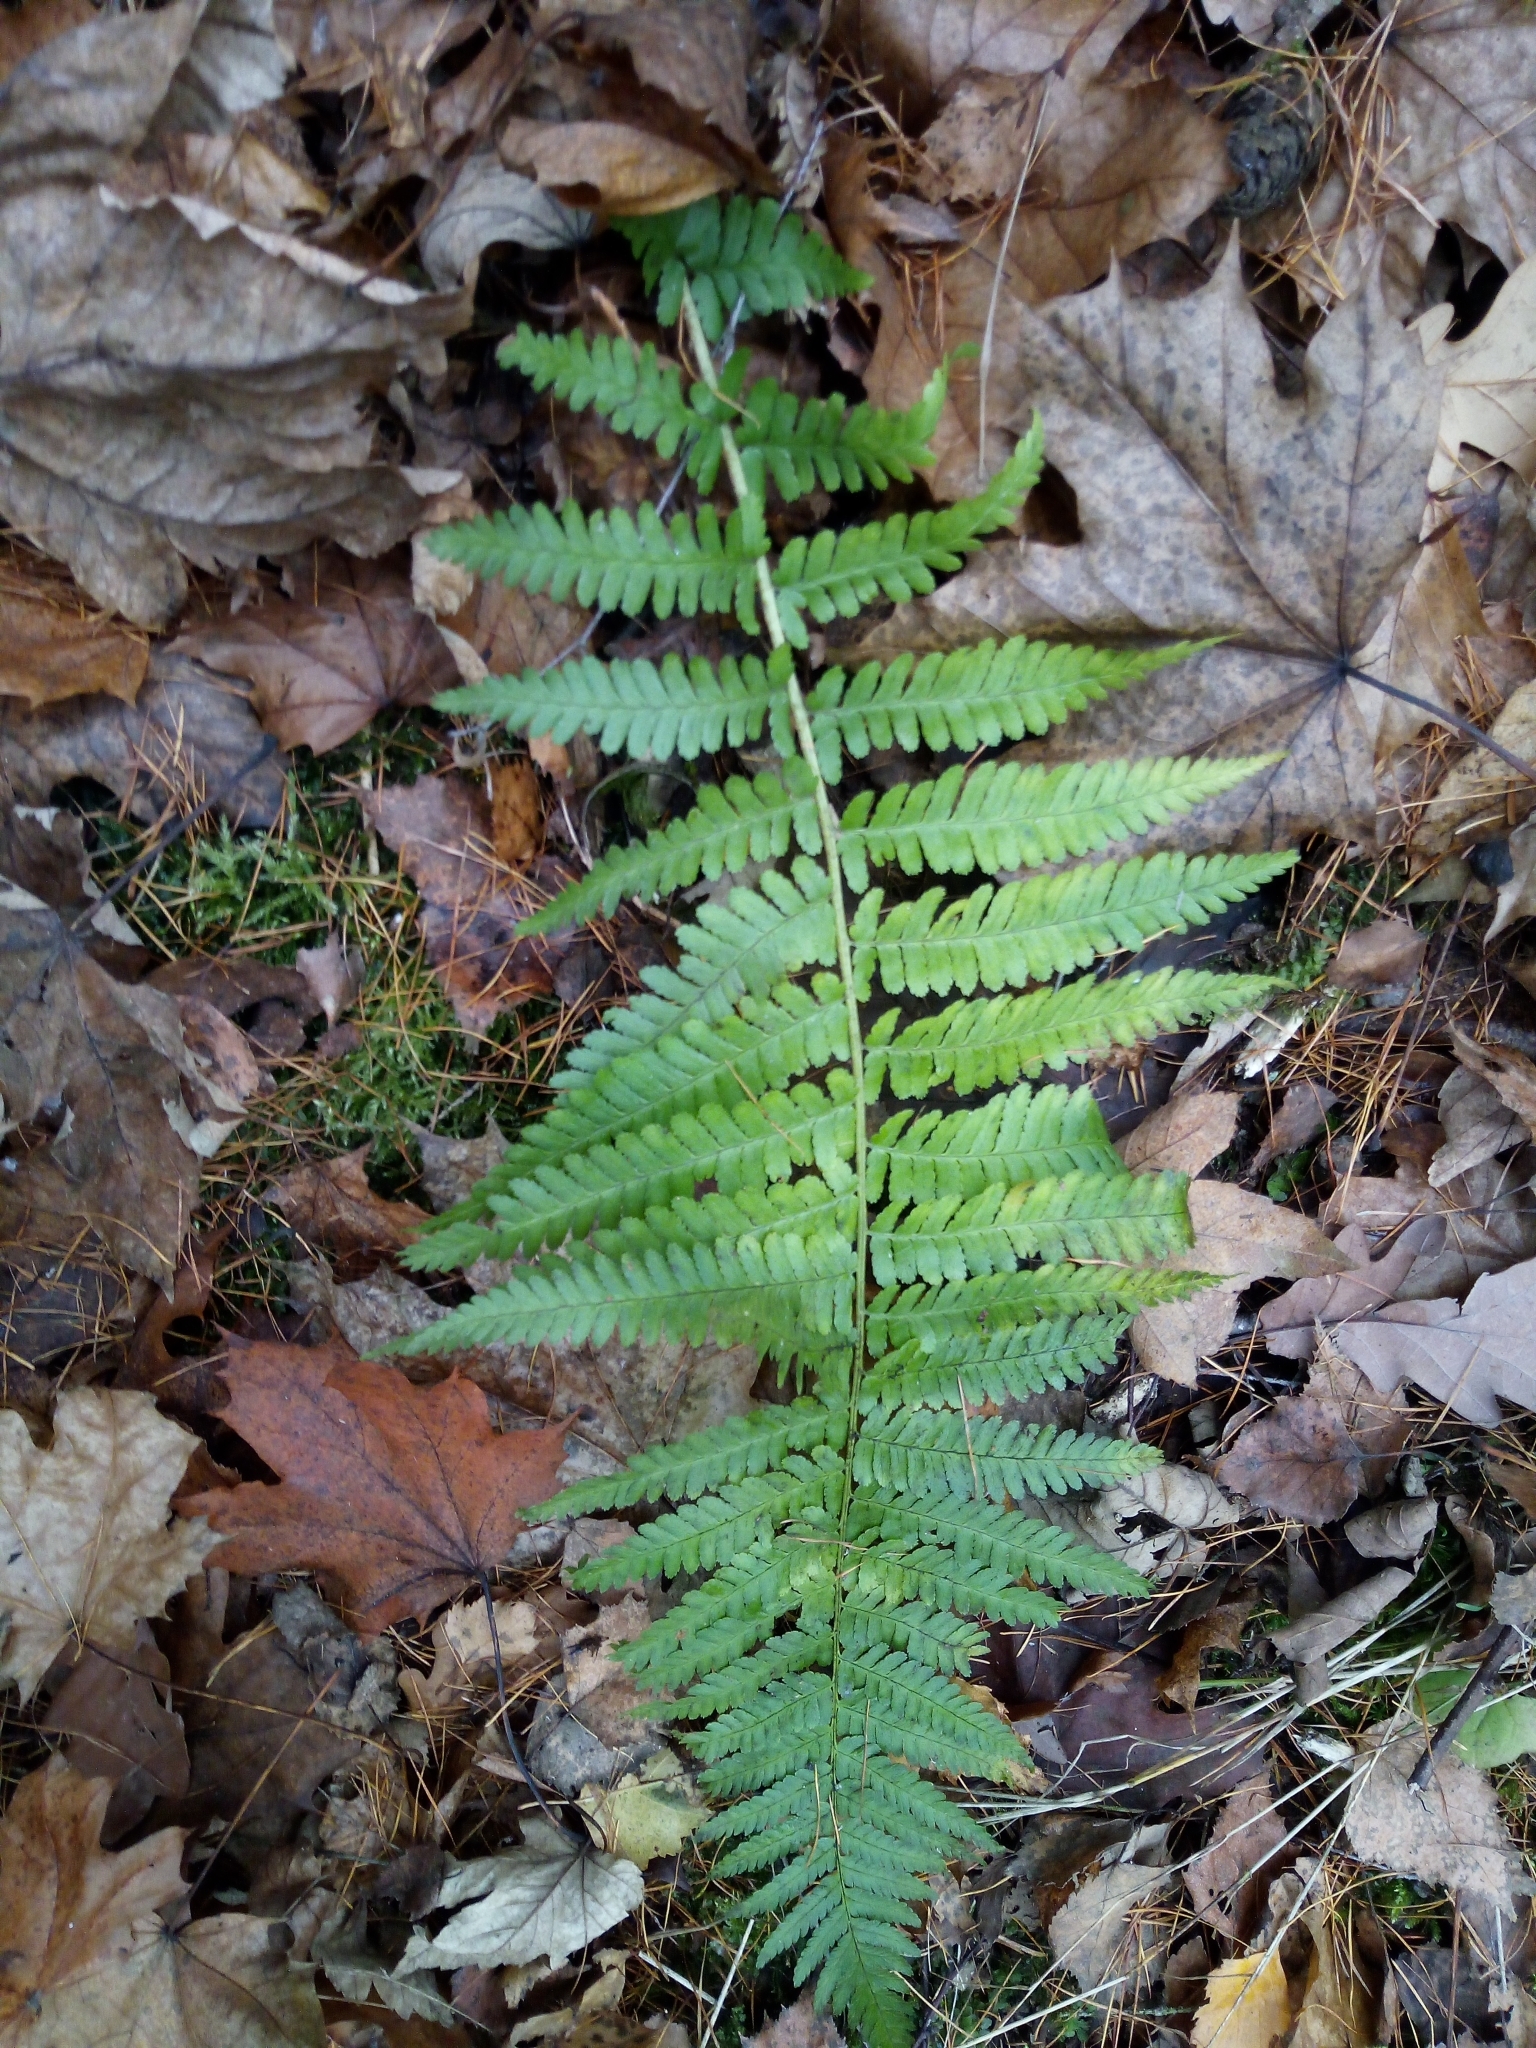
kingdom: Plantae
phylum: Tracheophyta
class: Polypodiopsida
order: Polypodiales
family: Dryopteridaceae
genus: Dryopteris
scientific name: Dryopteris filix-mas
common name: Male fern
